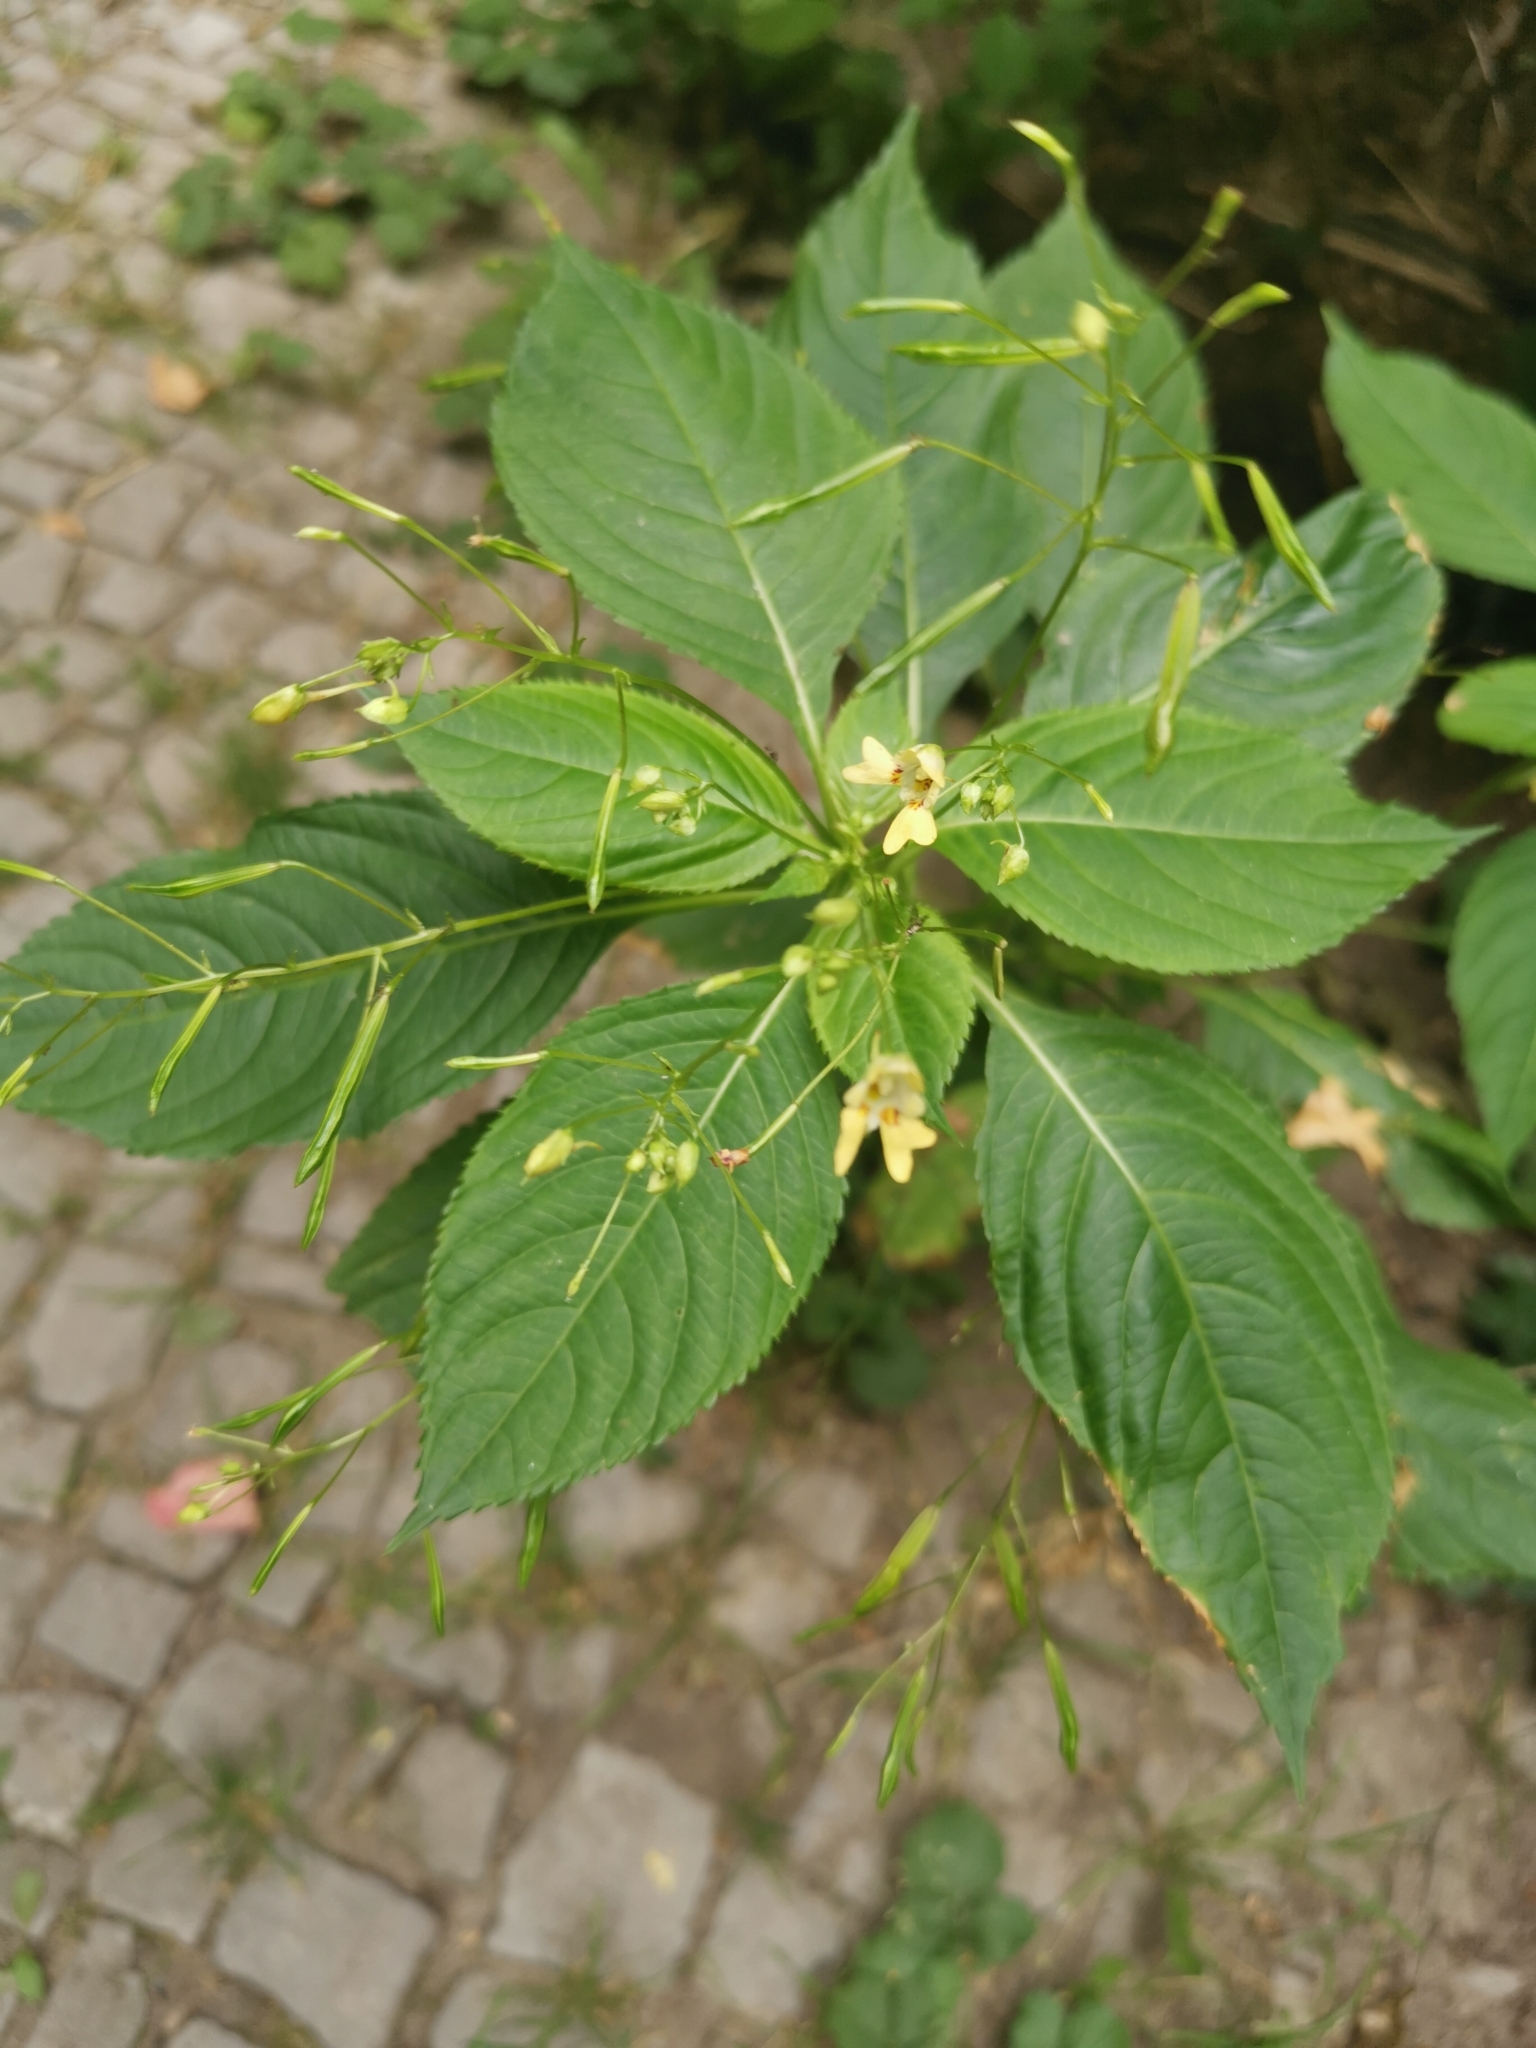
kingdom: Plantae
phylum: Tracheophyta
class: Magnoliopsida
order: Ericales
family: Balsaminaceae
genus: Impatiens
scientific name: Impatiens parviflora
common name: Small balsam
